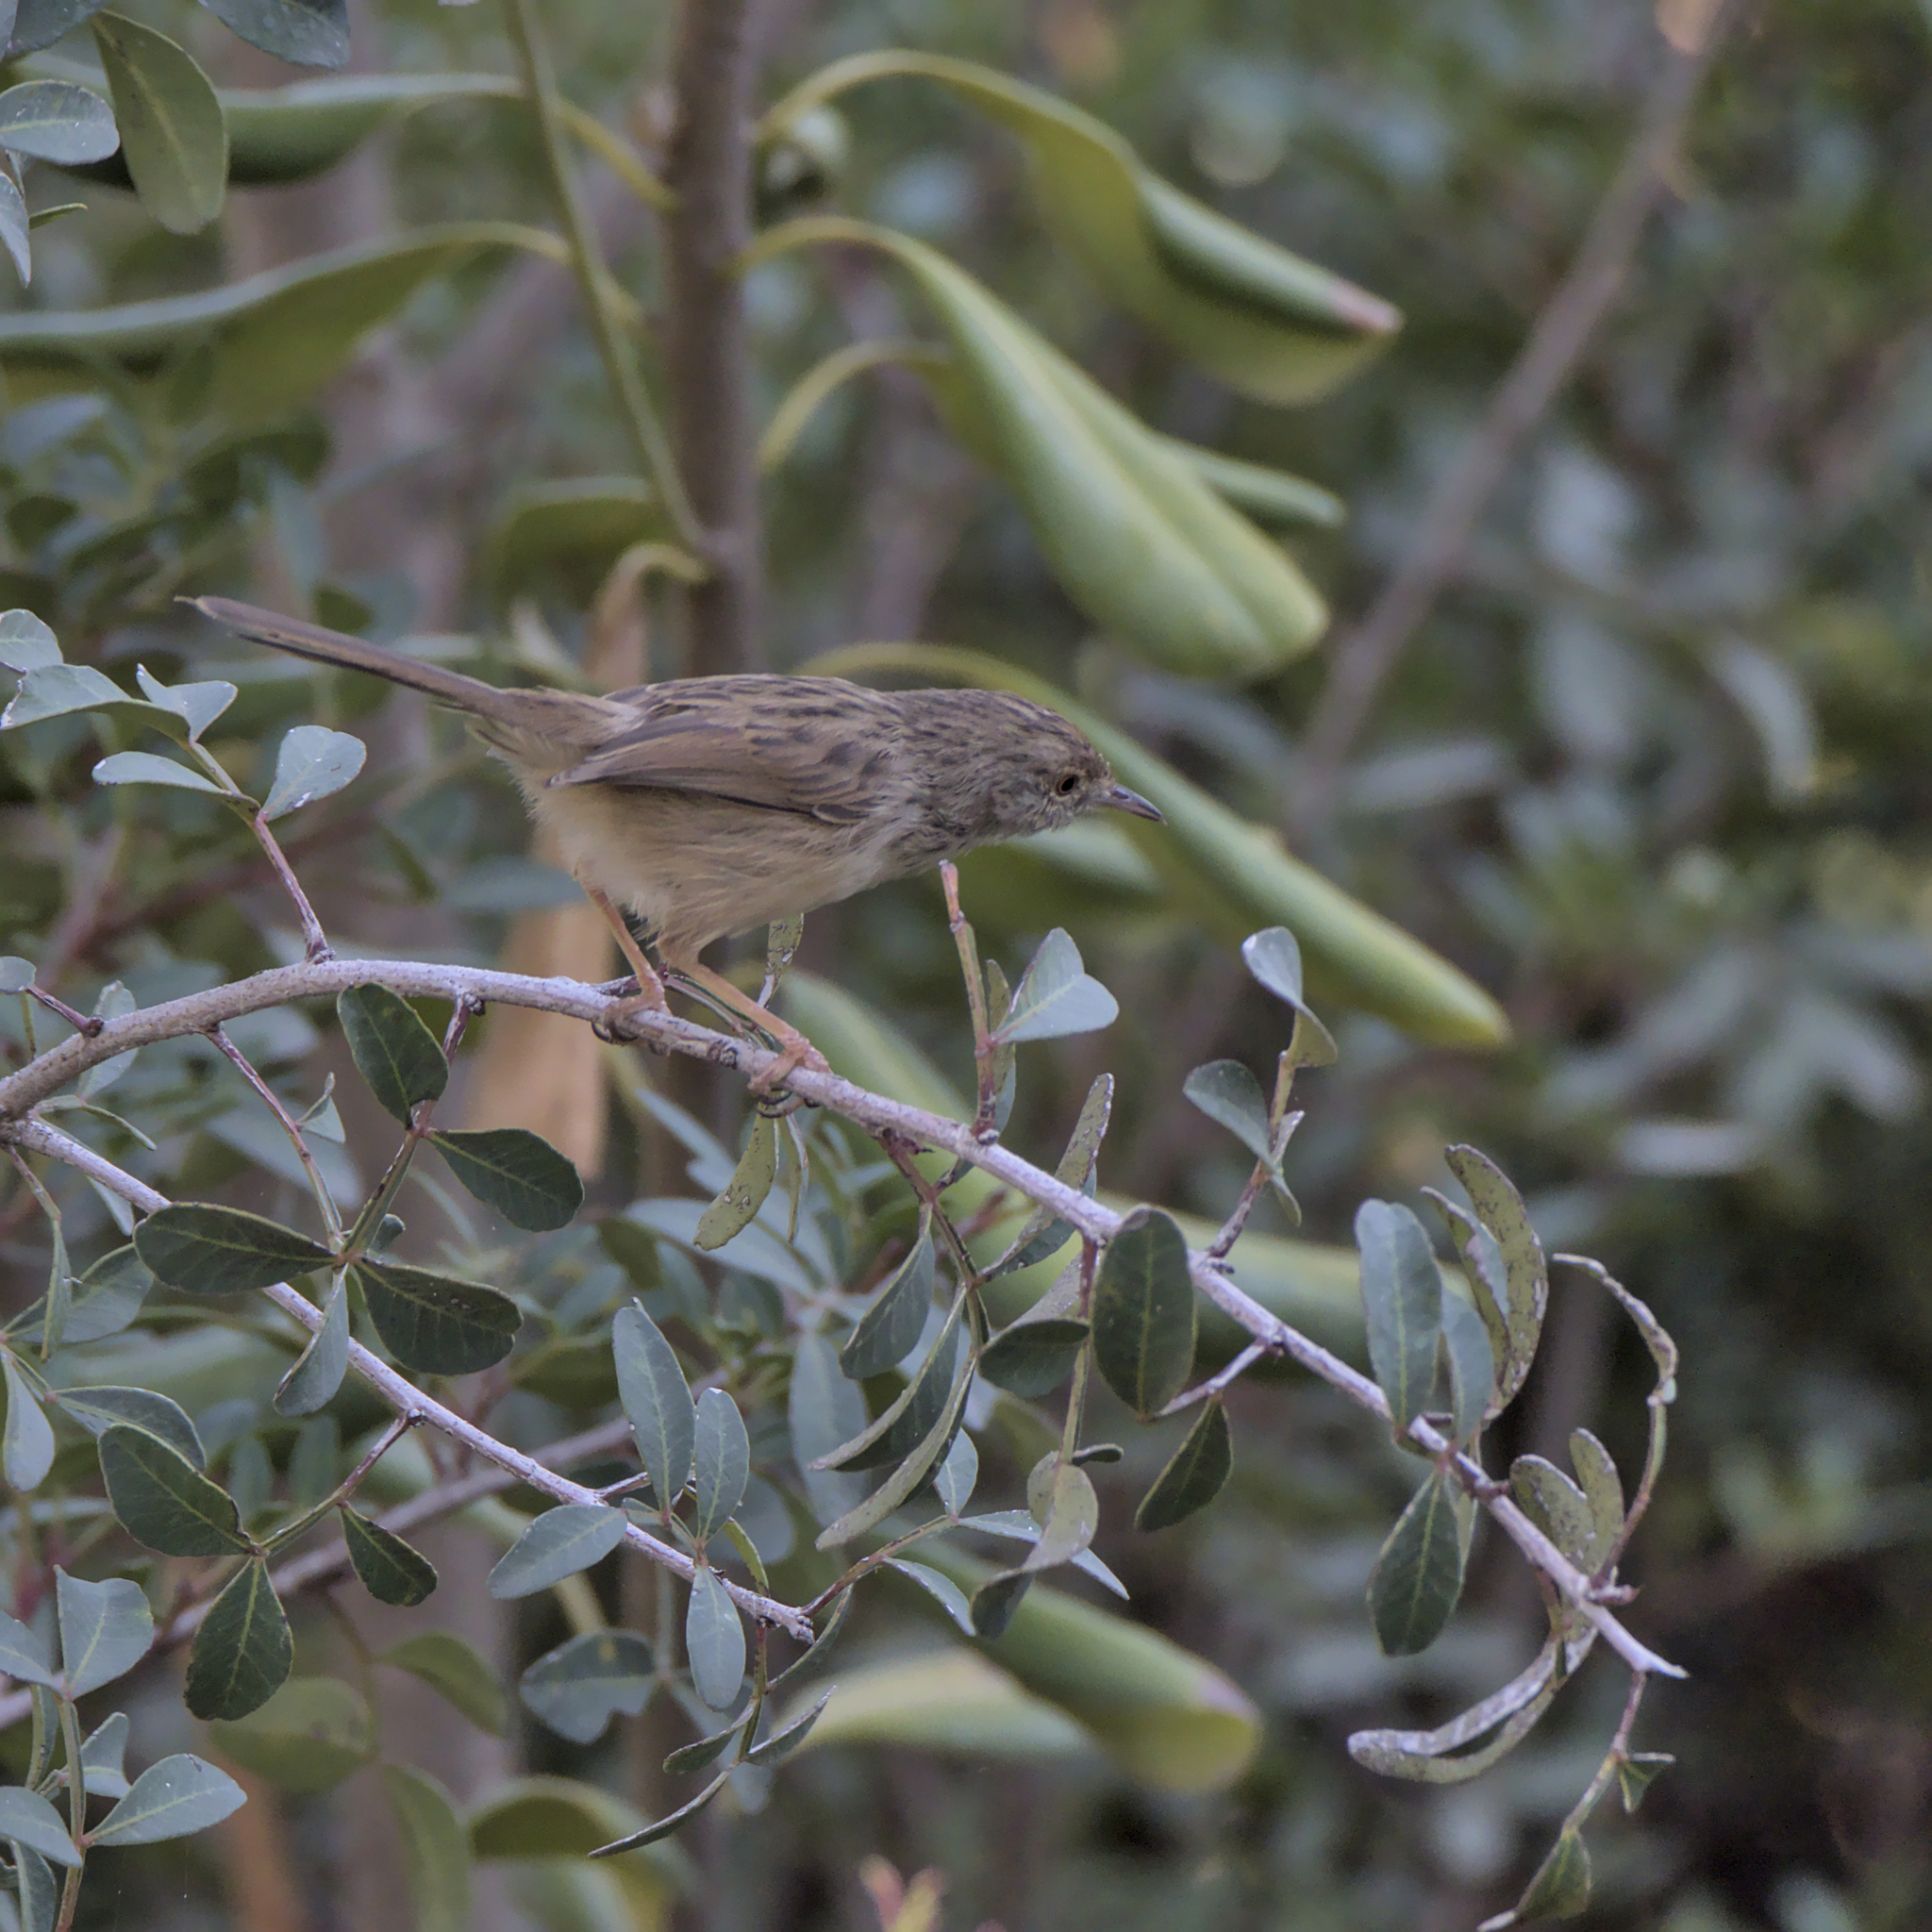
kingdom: Animalia
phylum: Chordata
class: Aves
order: Passeriformes
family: Cisticolidae
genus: Prinia
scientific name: Prinia gracilis
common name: Graceful prinia
